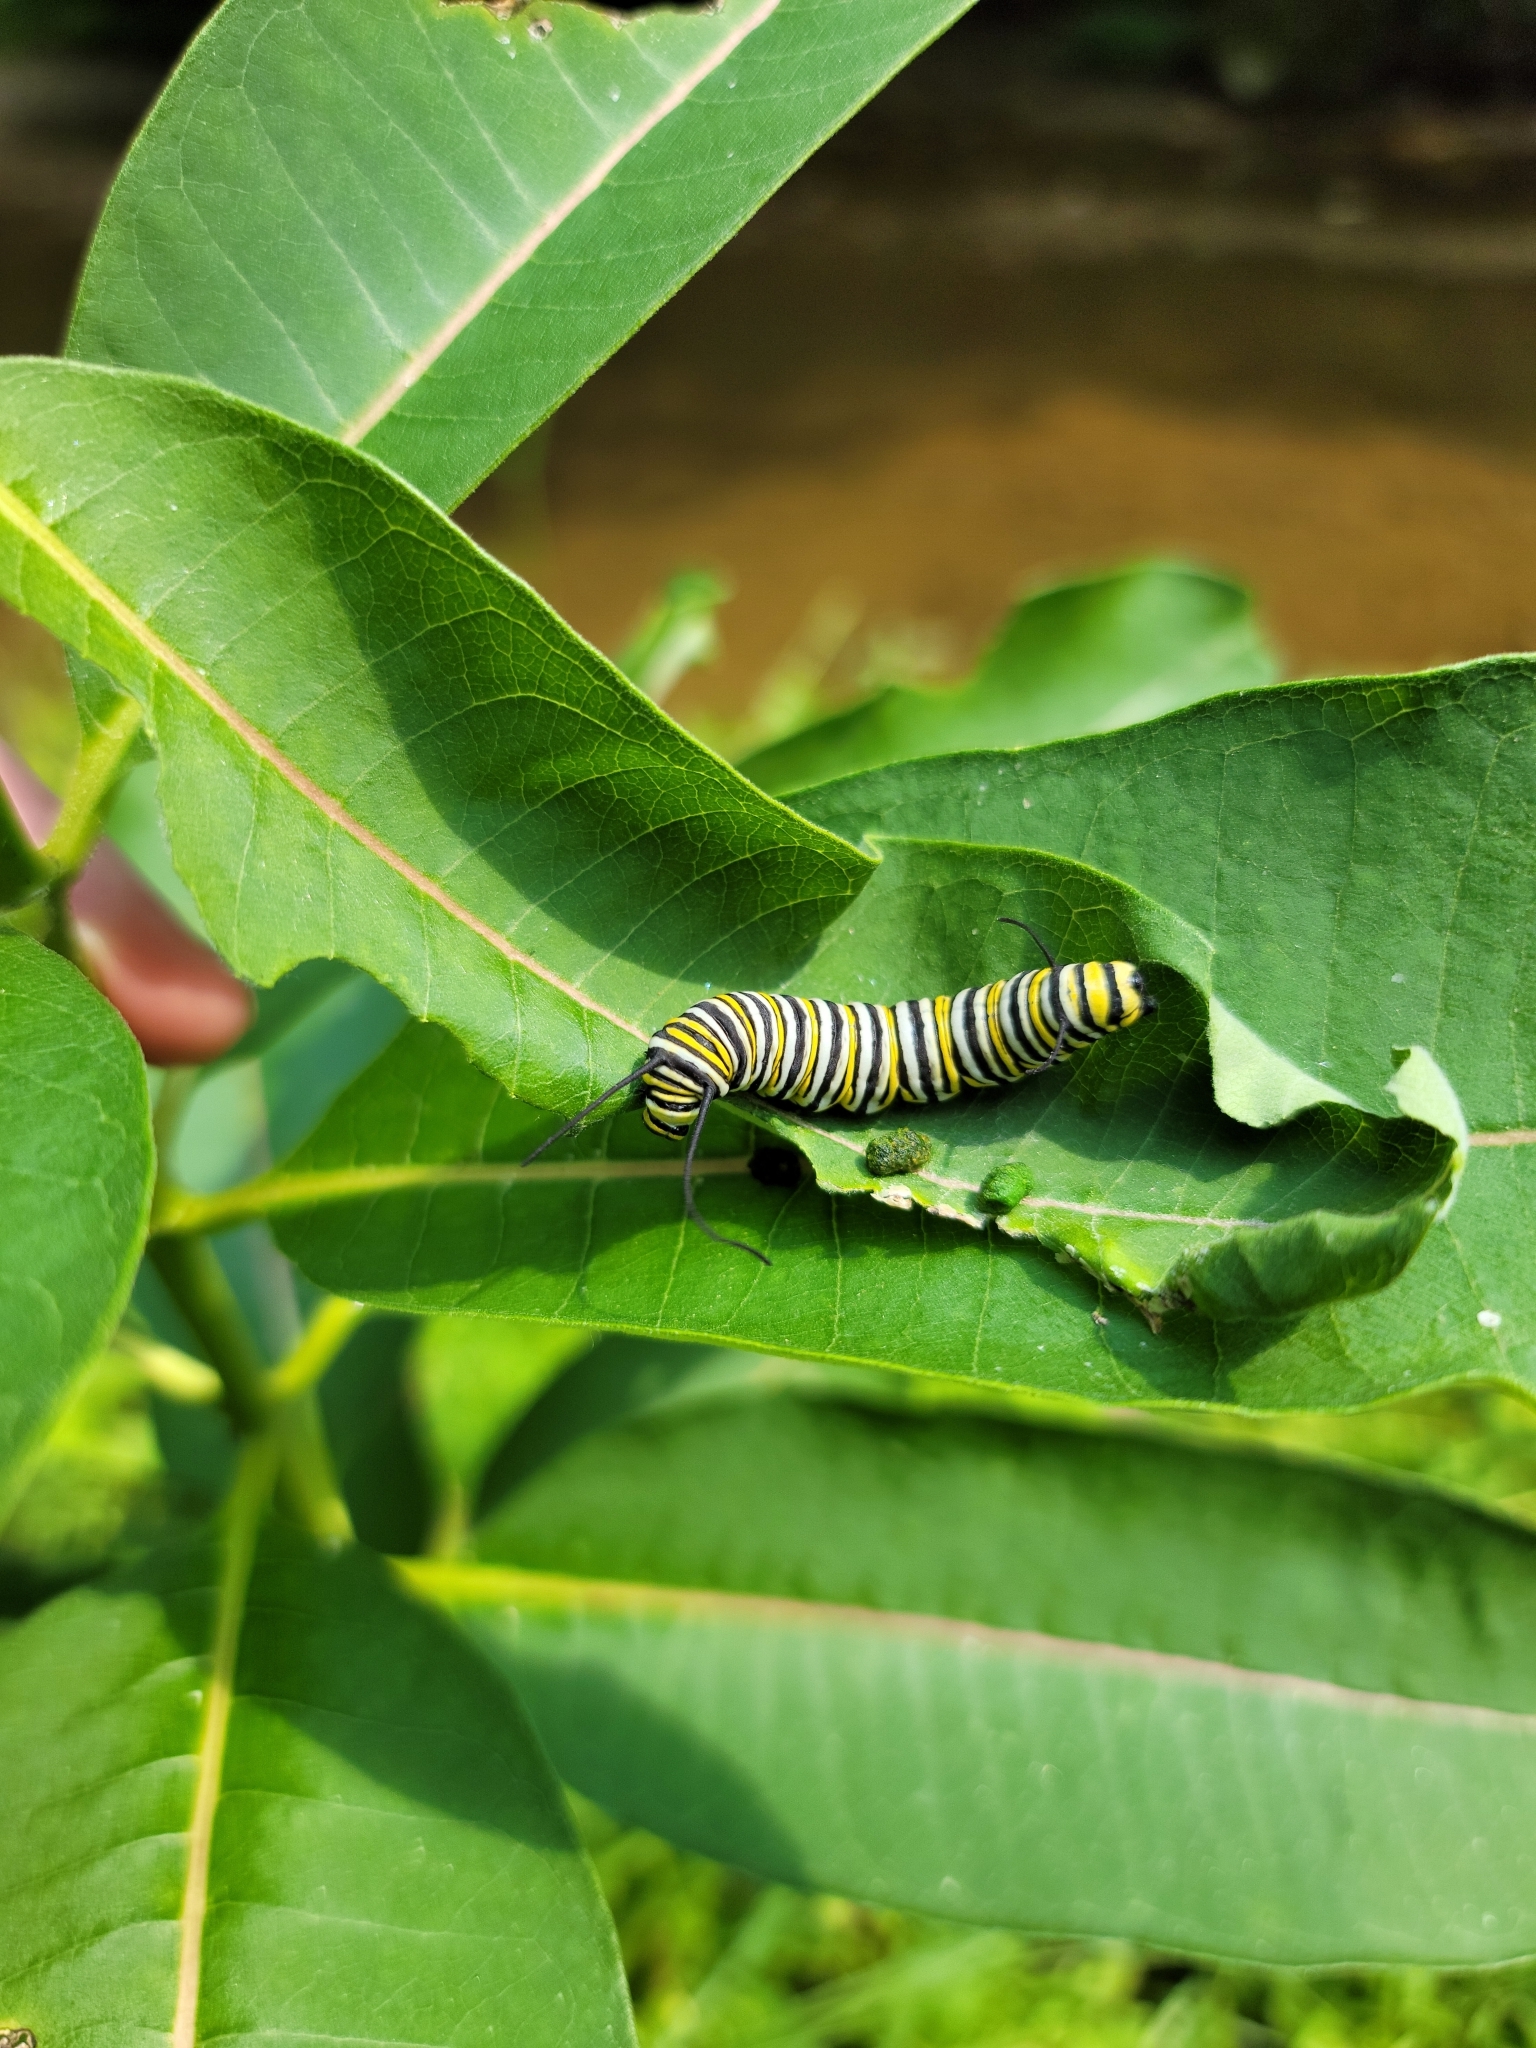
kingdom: Animalia
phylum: Arthropoda
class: Insecta
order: Lepidoptera
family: Nymphalidae
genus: Danaus
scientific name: Danaus plexippus
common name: Monarch
